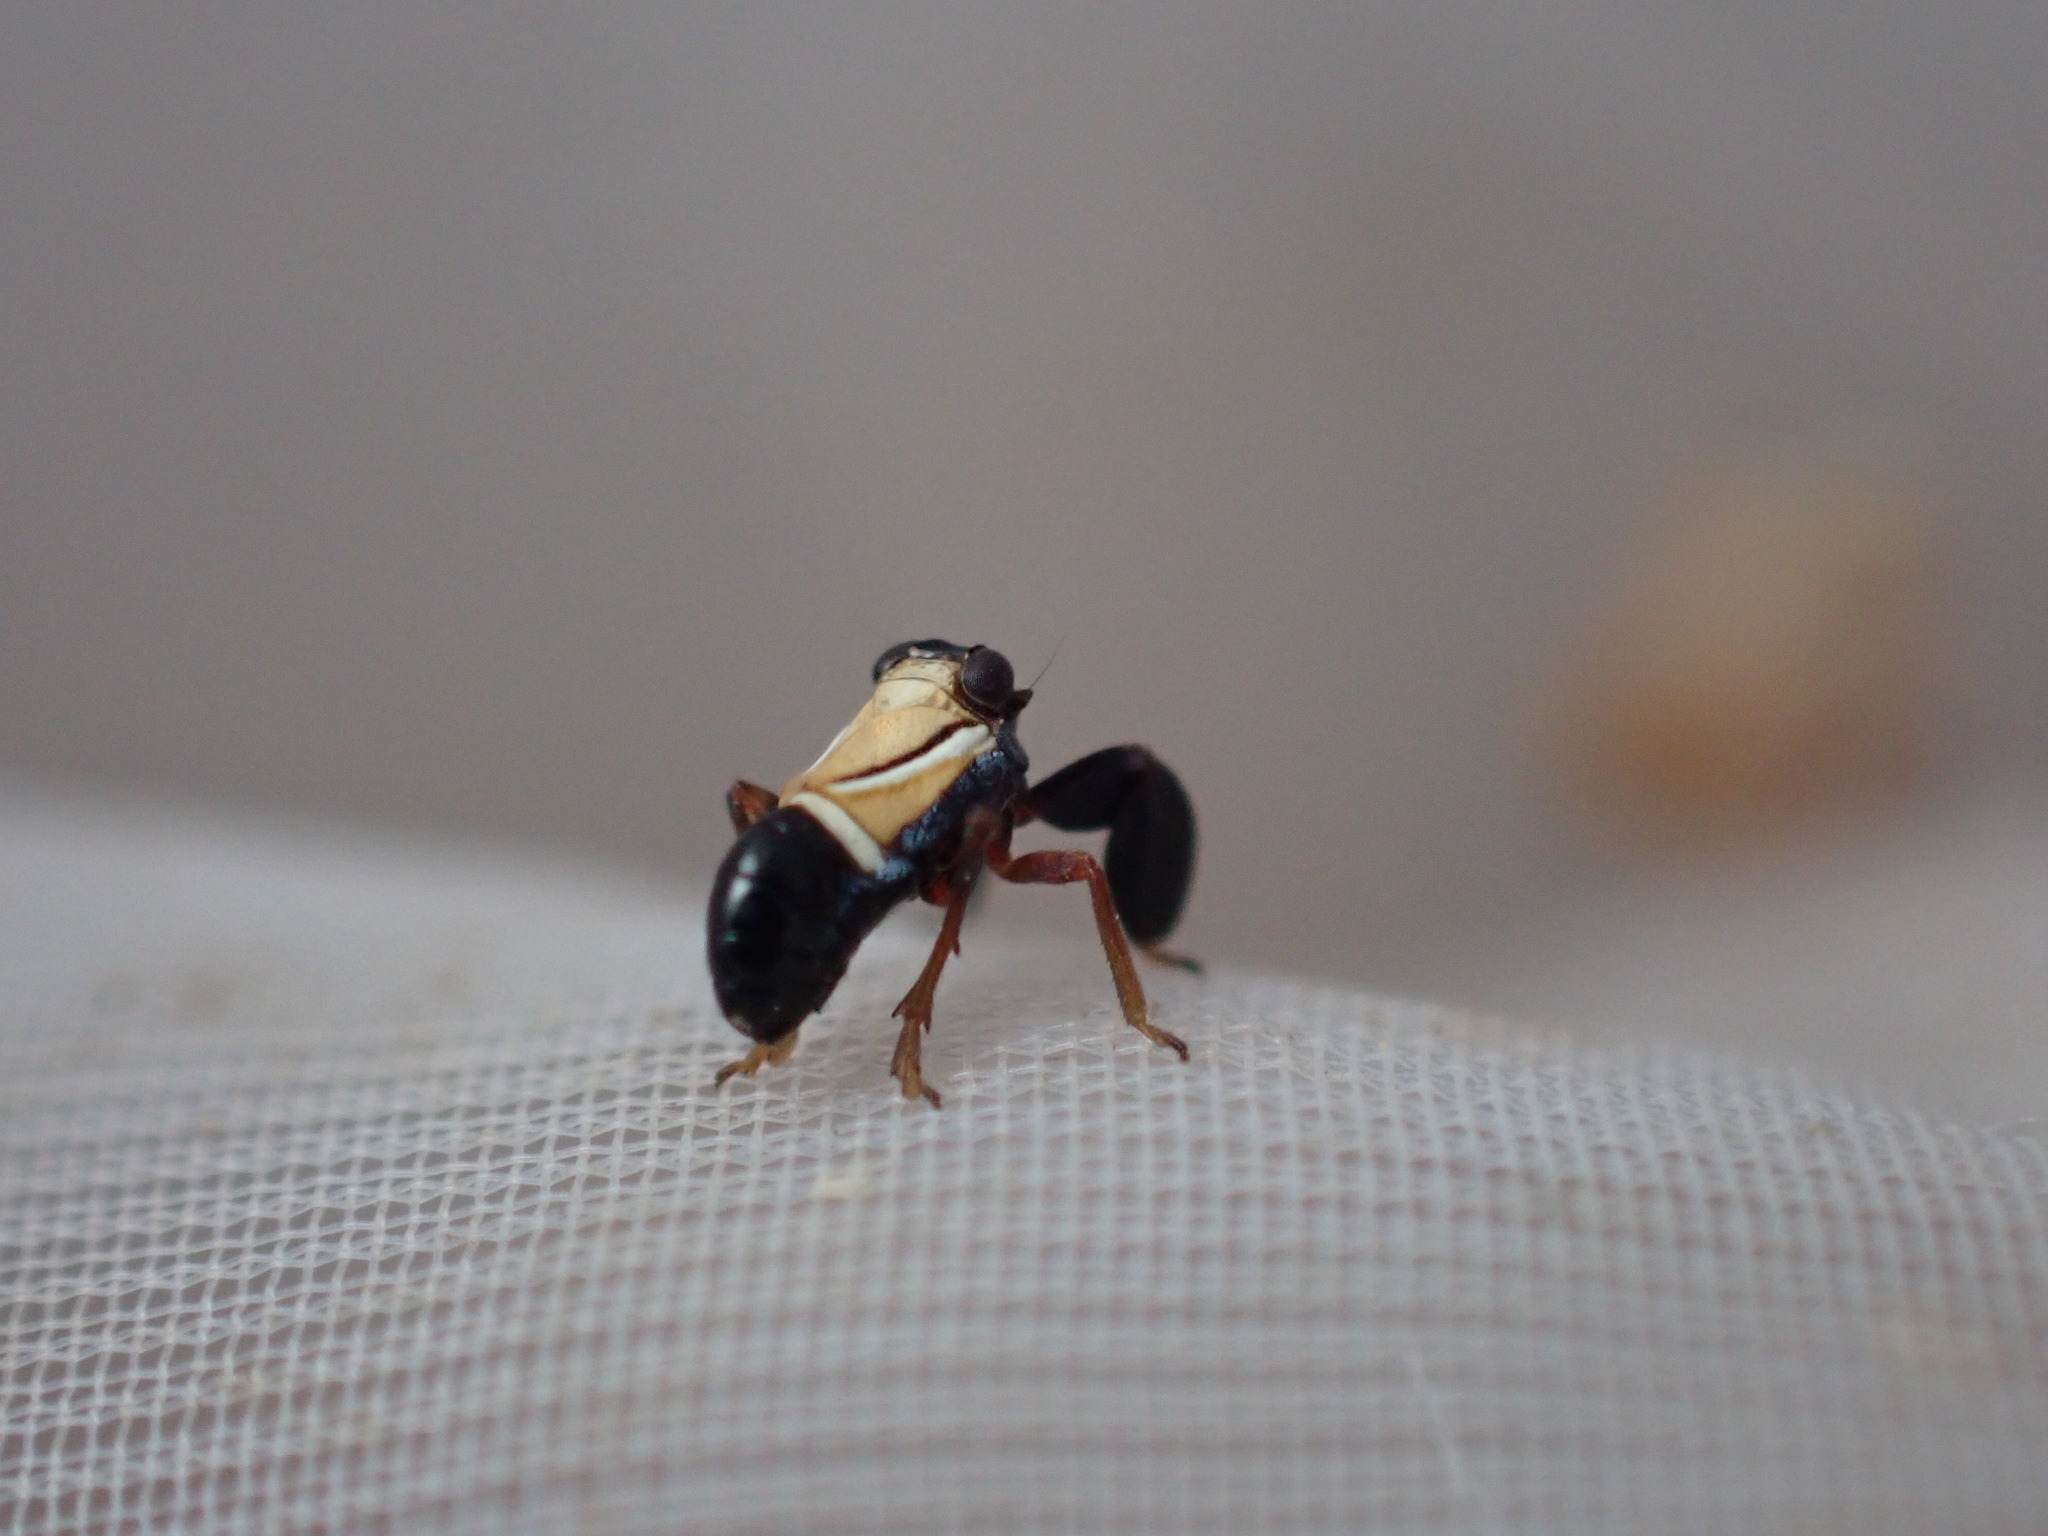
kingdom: Animalia
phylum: Arthropoda
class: Insecta
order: Hemiptera
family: Caliscelidae
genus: Caliscelis
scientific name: Caliscelis bonellii
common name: Planthopper
